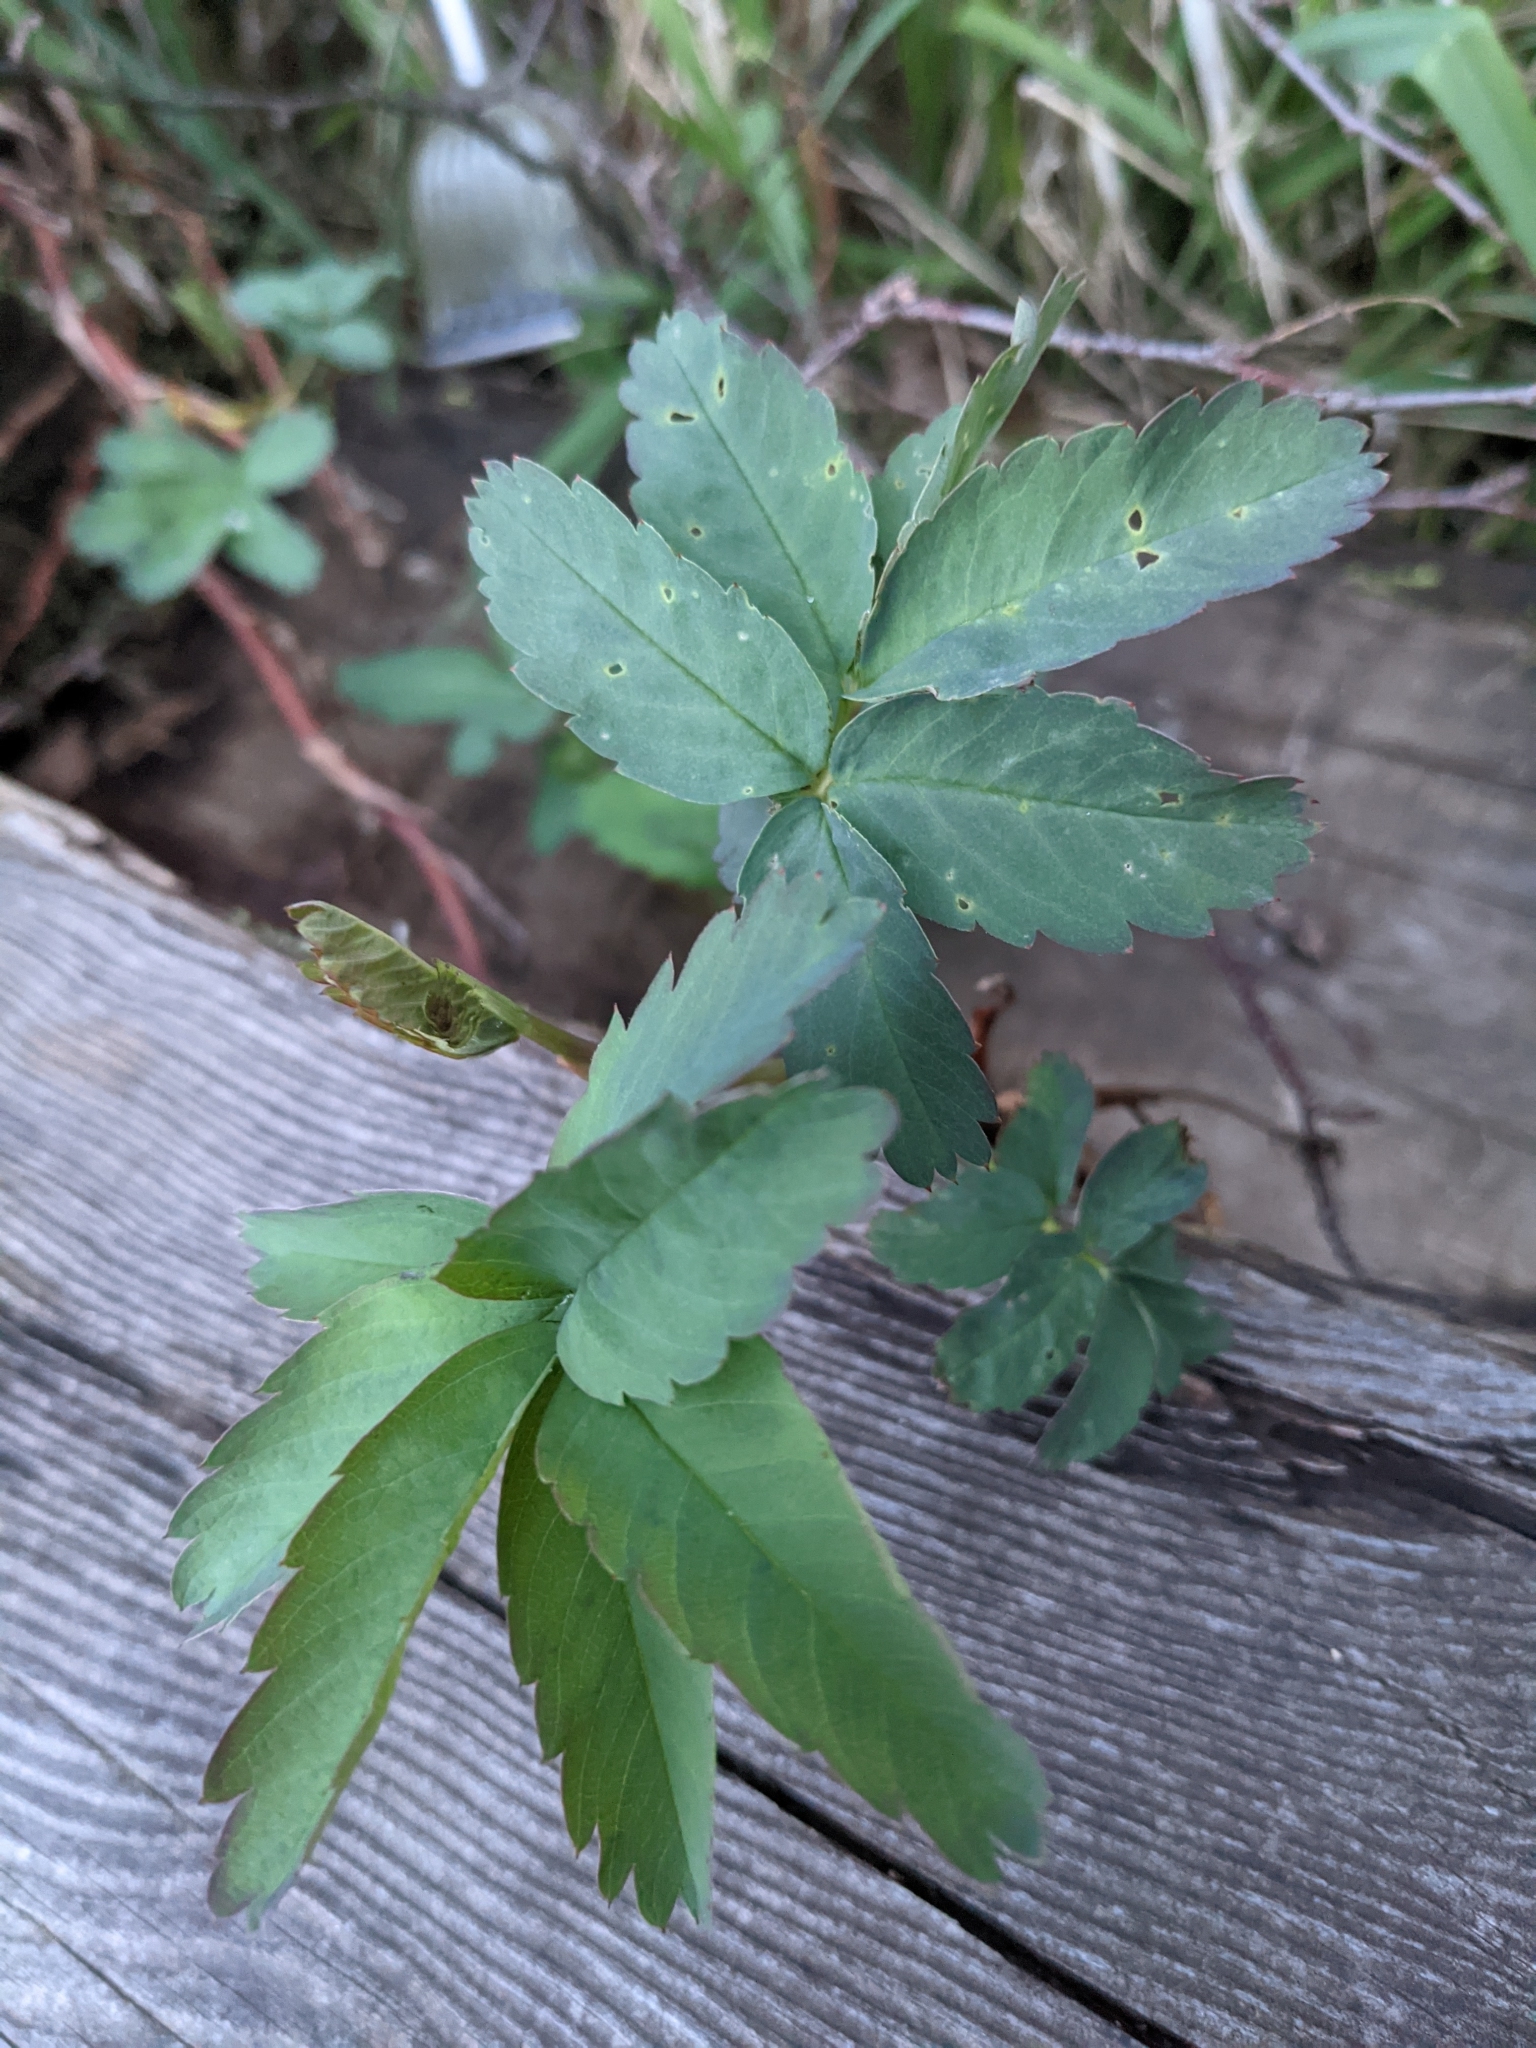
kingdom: Plantae
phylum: Tracheophyta
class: Magnoliopsida
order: Rosales
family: Rosaceae
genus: Comarum
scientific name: Comarum palustre
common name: Marsh cinquefoil
